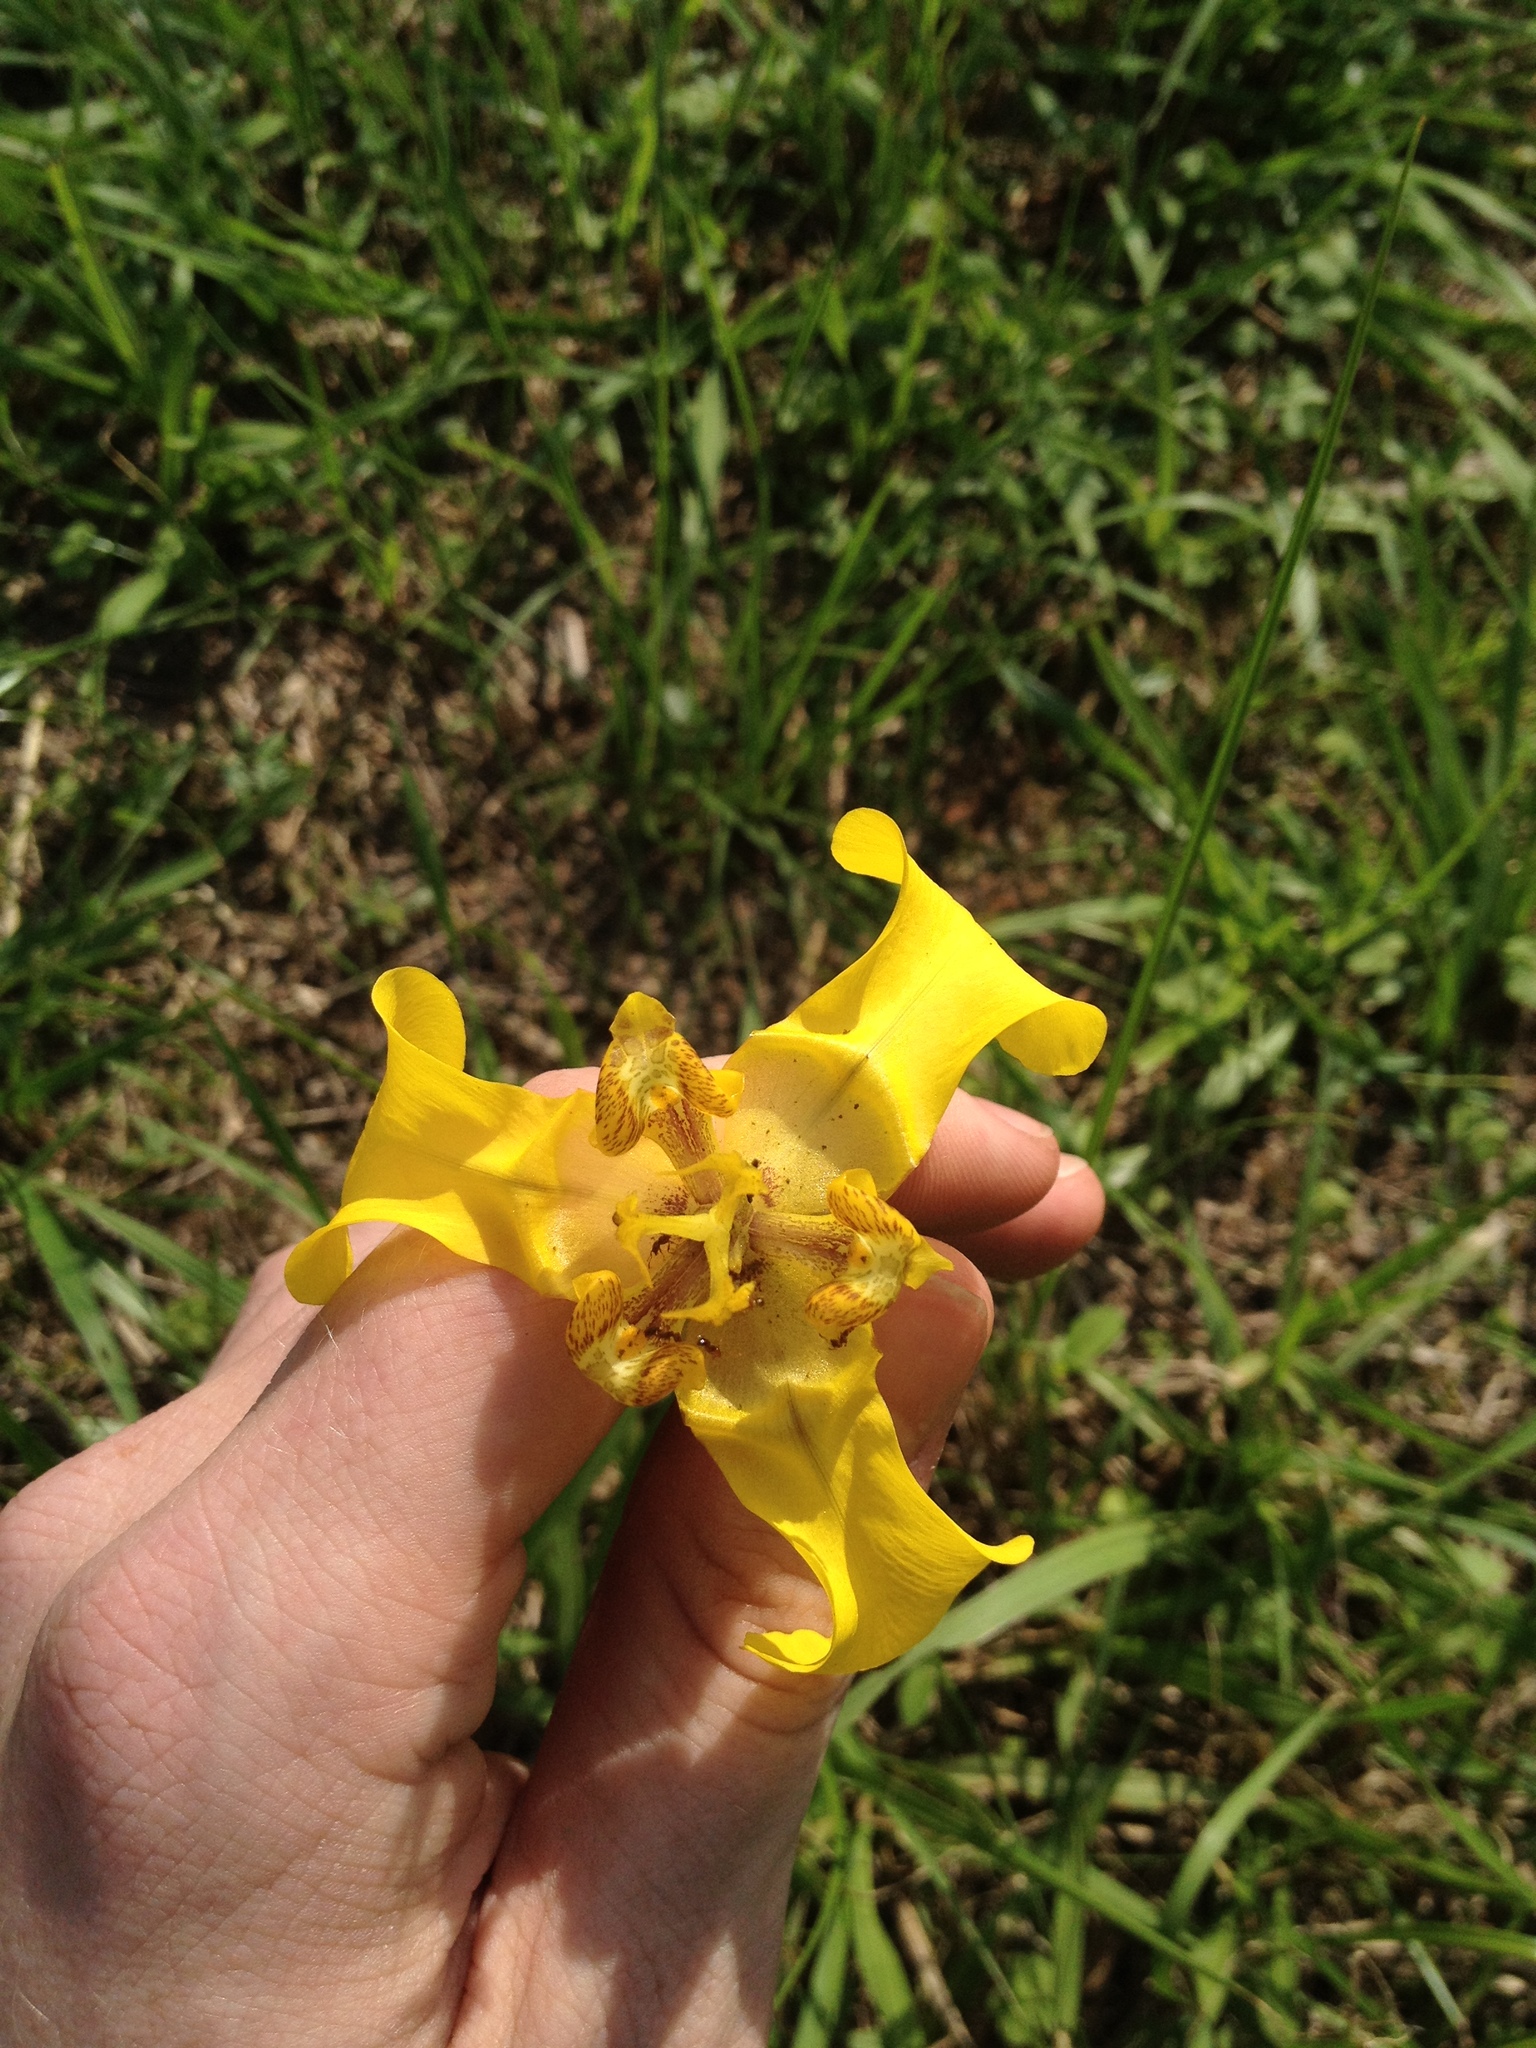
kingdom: Plantae
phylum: Tracheophyta
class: Liliopsida
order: Asparagales
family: Iridaceae
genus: Cypella
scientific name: Cypella armosa
